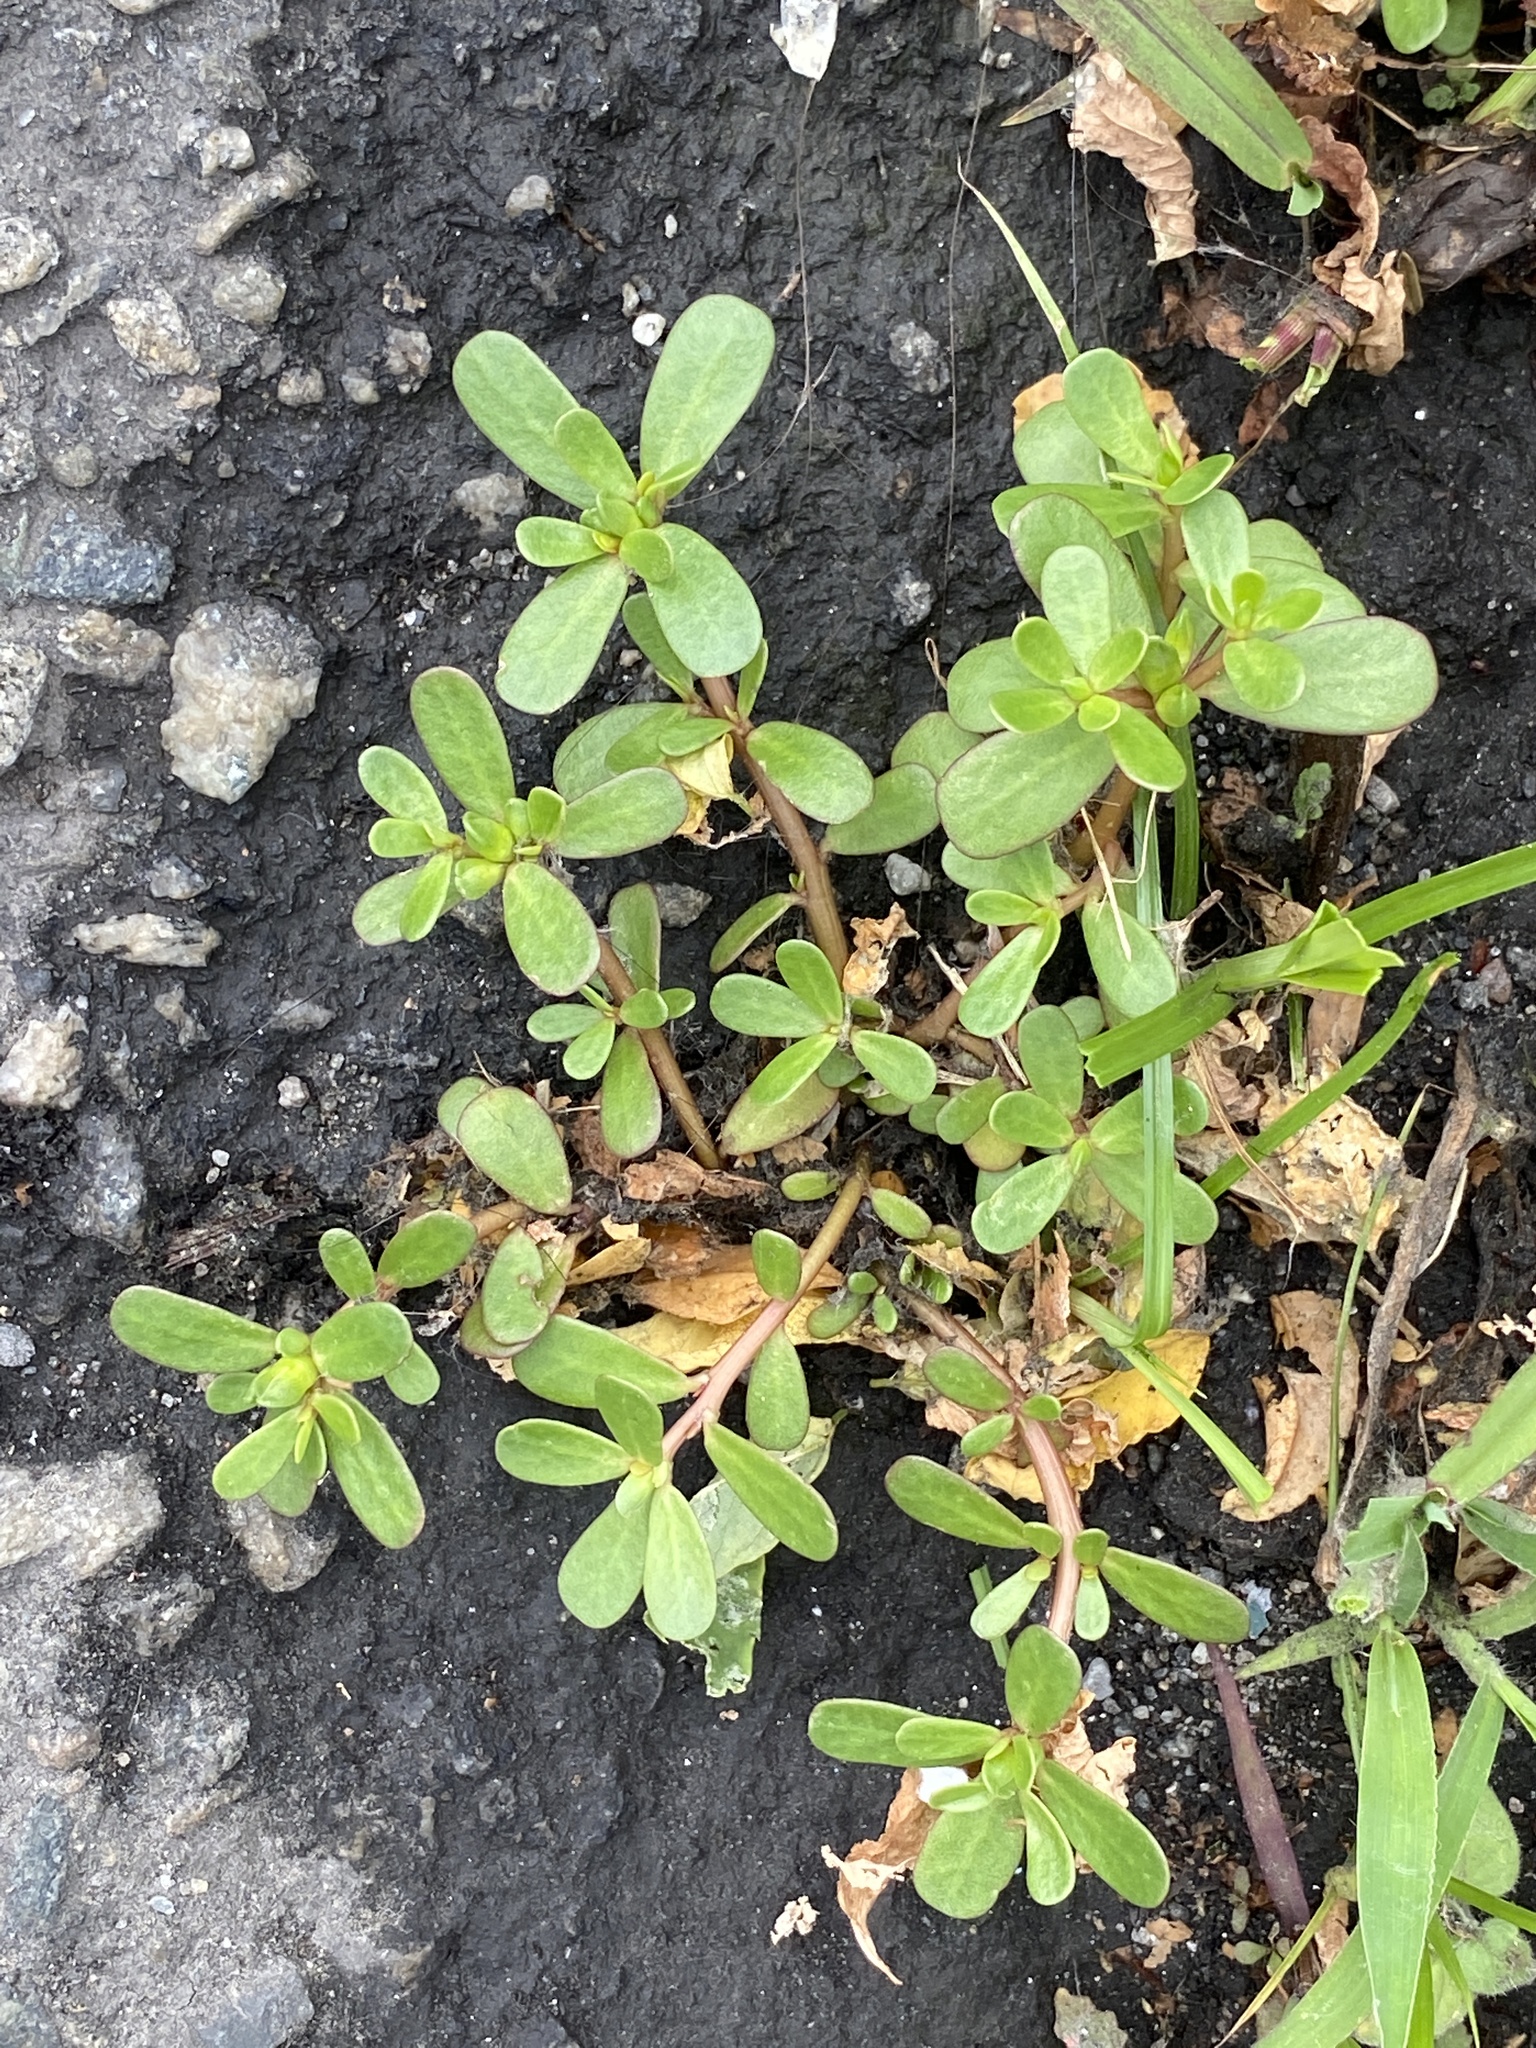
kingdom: Plantae
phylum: Tracheophyta
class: Magnoliopsida
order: Caryophyllales
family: Portulacaceae
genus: Portulaca
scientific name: Portulaca oleracea
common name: Common purslane
